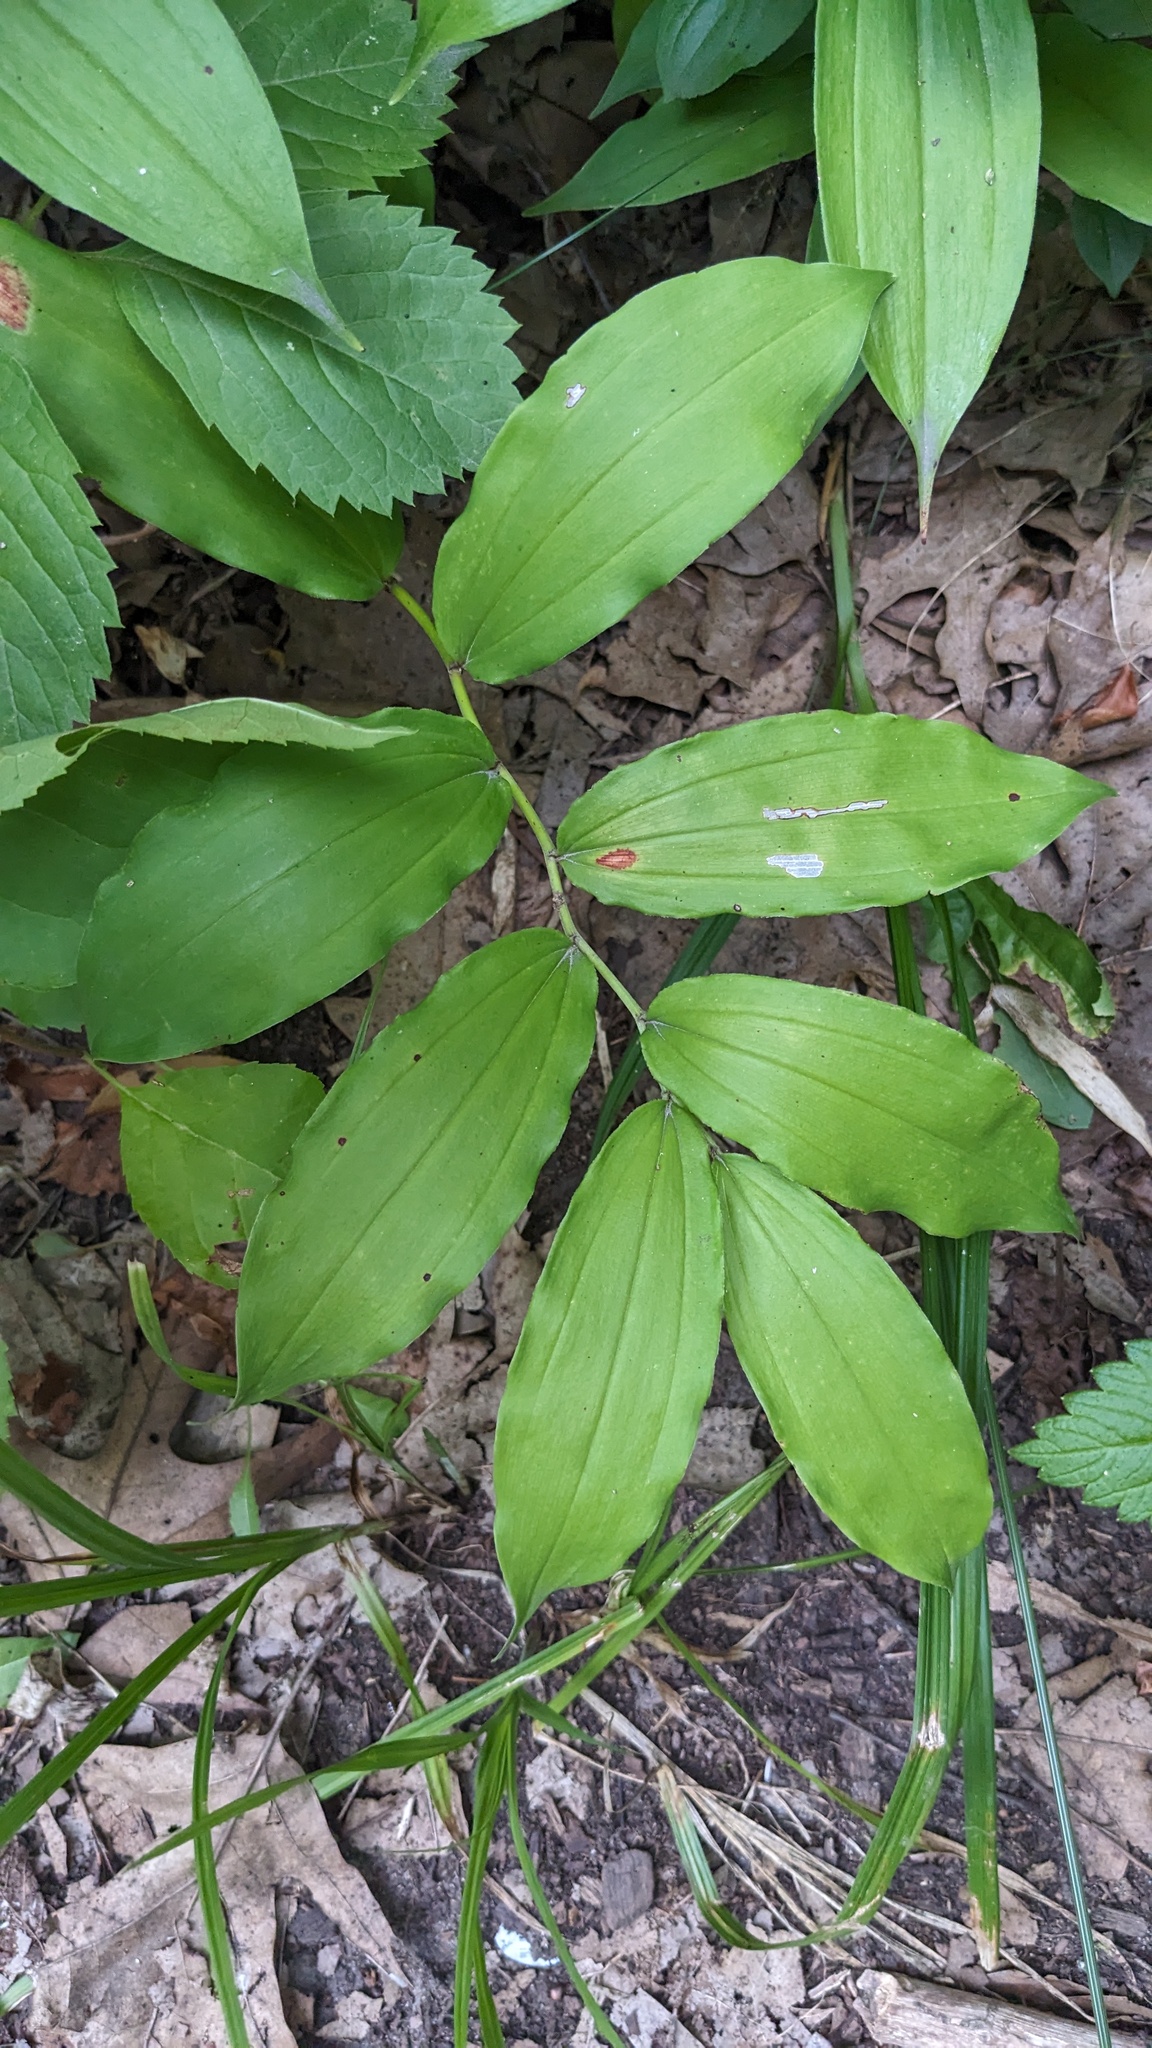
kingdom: Plantae
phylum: Tracheophyta
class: Liliopsida
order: Asparagales
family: Asparagaceae
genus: Maianthemum
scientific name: Maianthemum racemosum
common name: False spikenard
